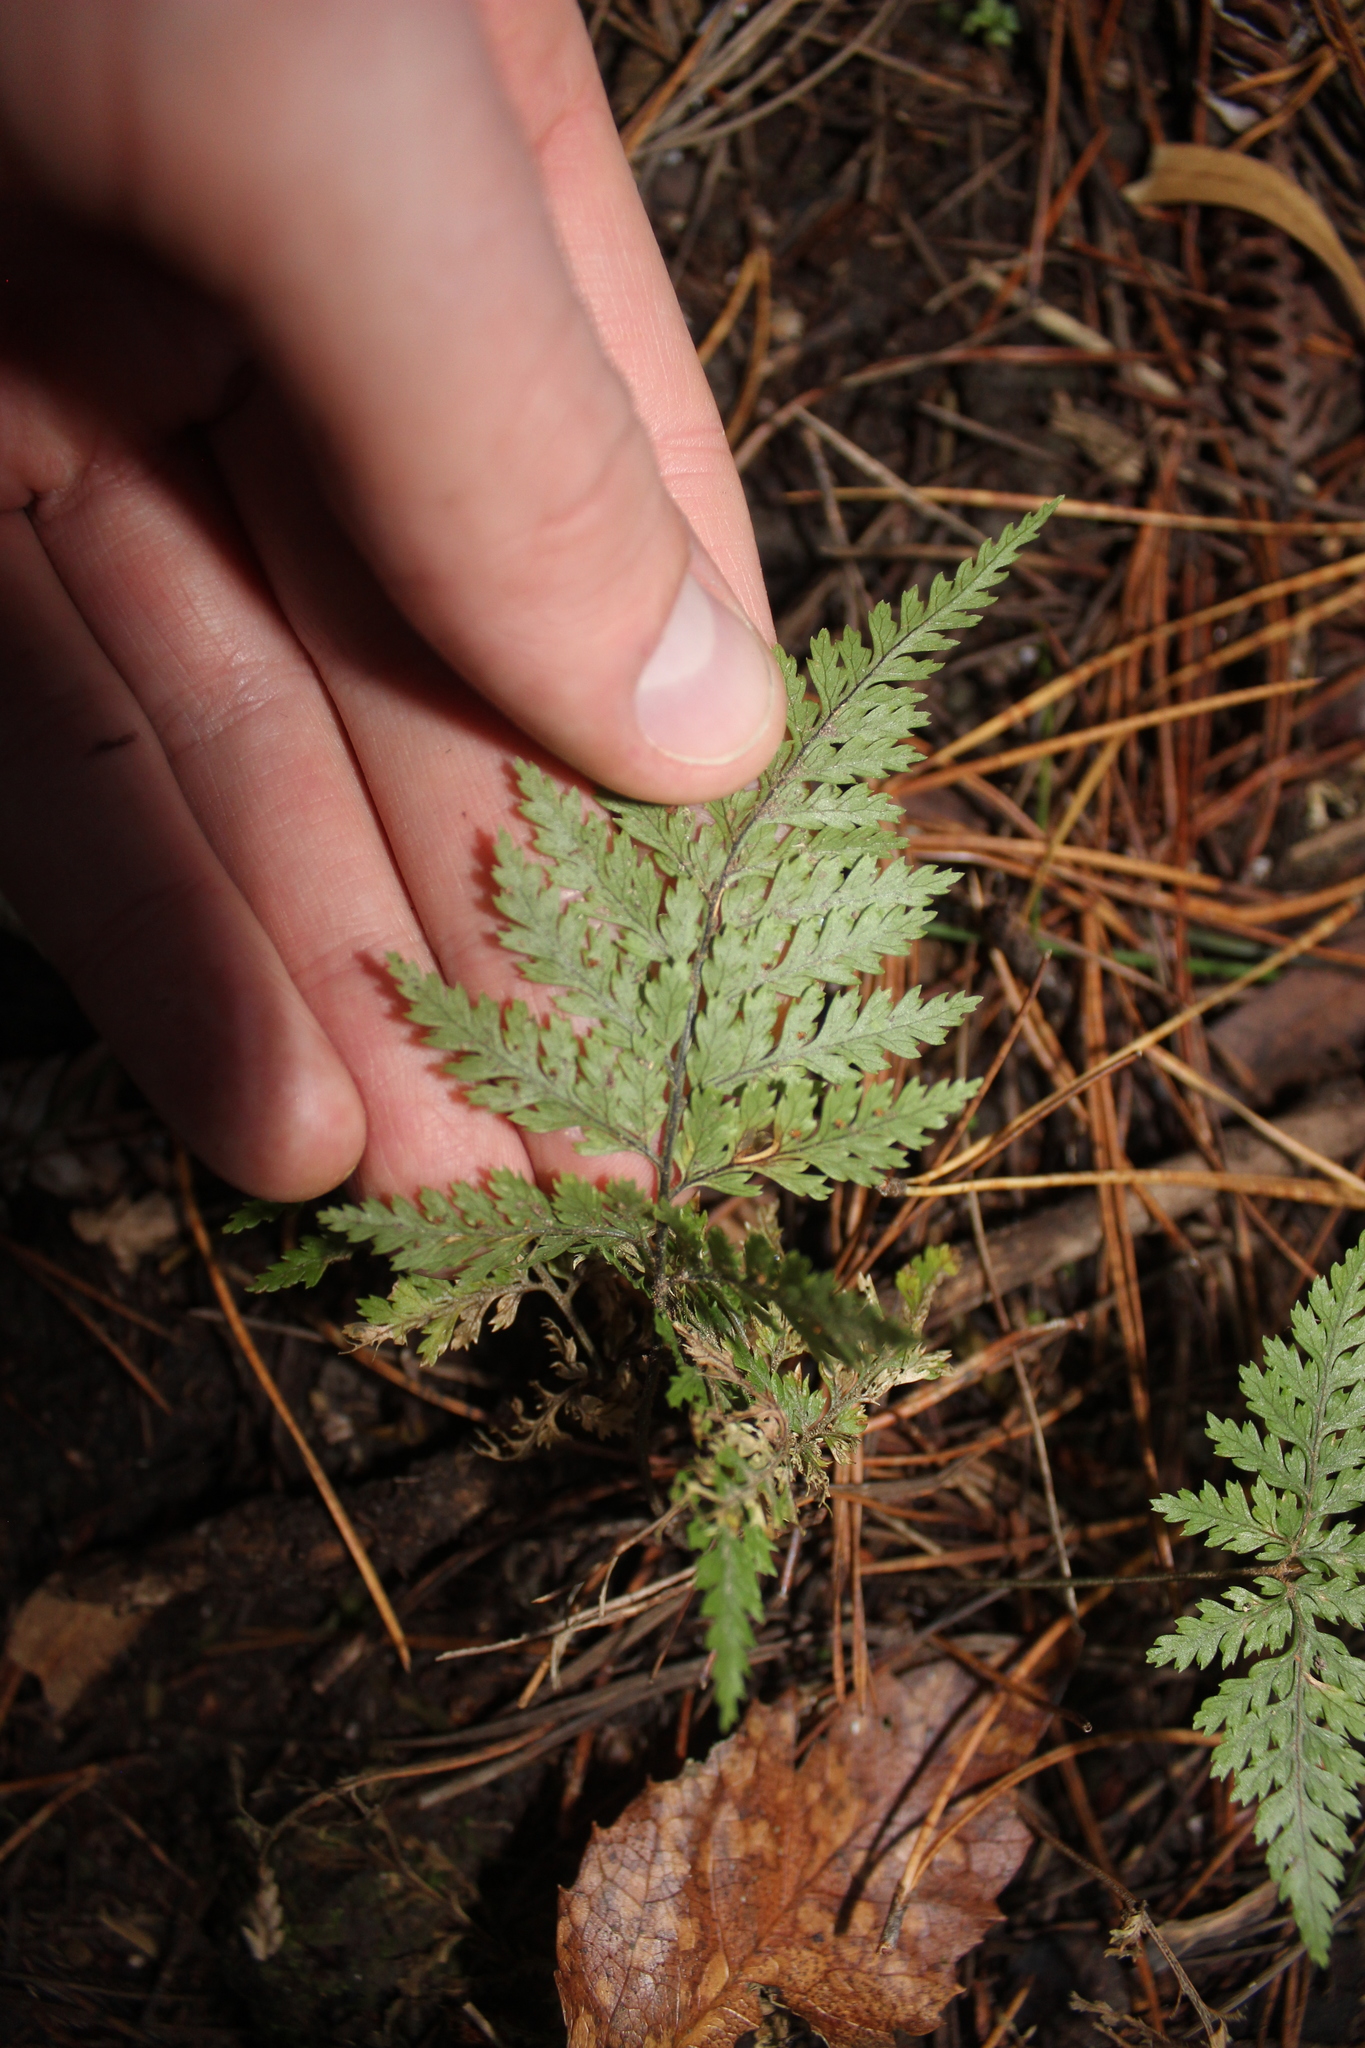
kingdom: Plantae
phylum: Tracheophyta
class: Polypodiopsida
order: Polypodiales
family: Dryopteridaceae
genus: Parapolystichum
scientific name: Parapolystichum glabellum
